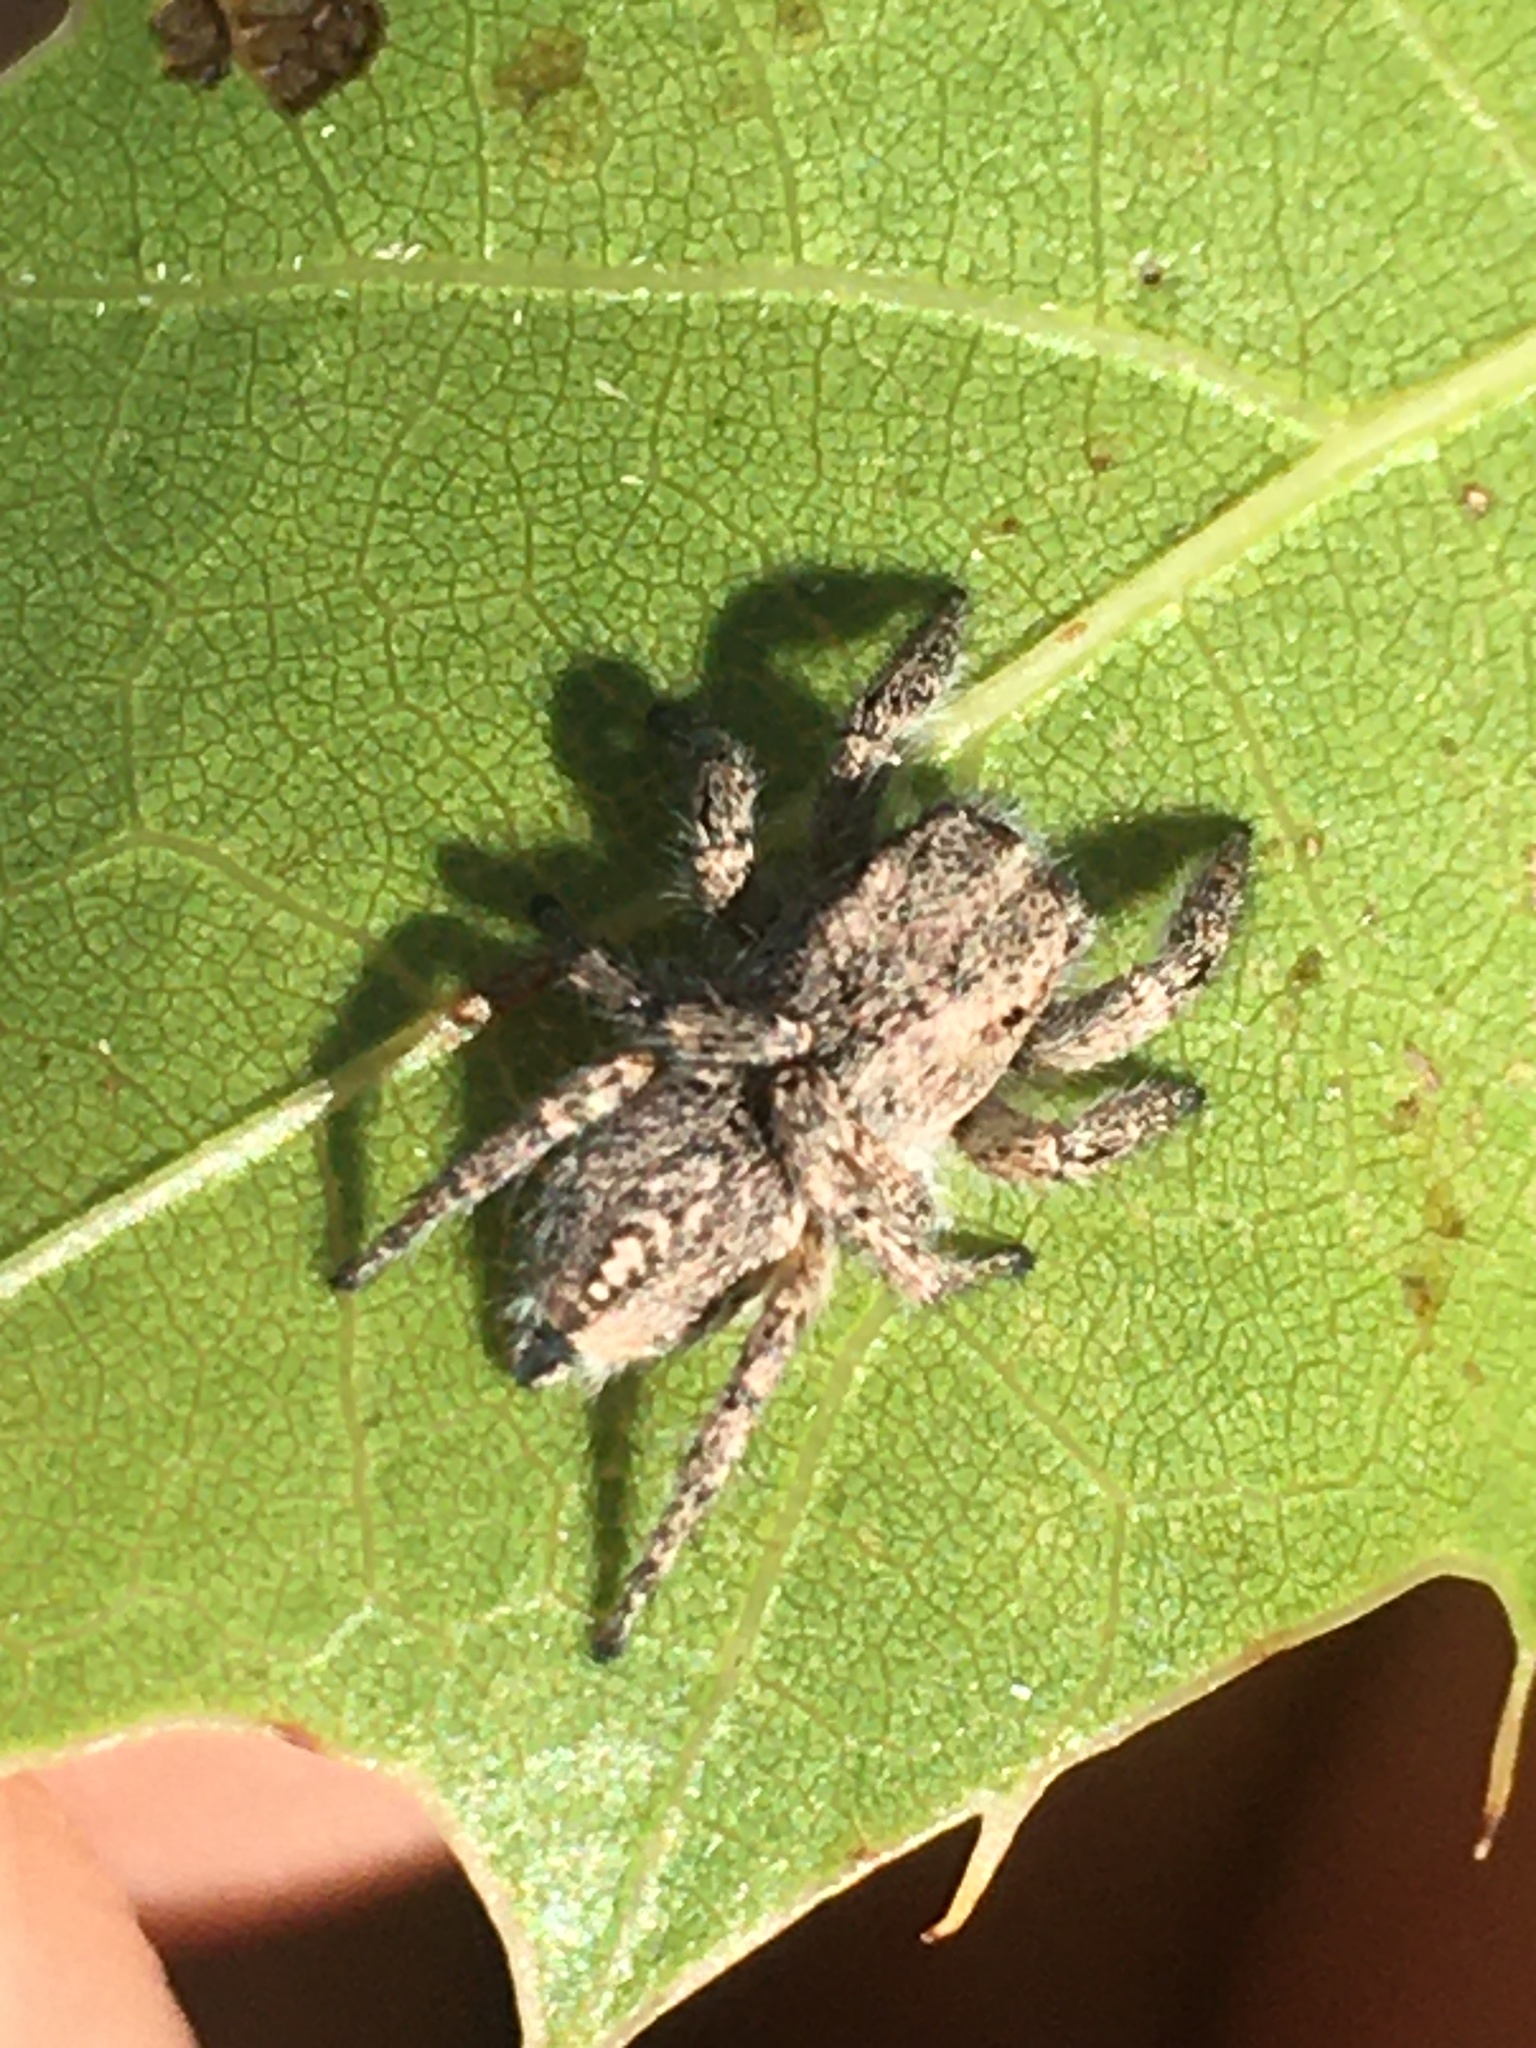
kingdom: Animalia
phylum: Arthropoda
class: Arachnida
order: Araneae
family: Salticidae
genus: Habronattus
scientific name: Habronattus cognatus
